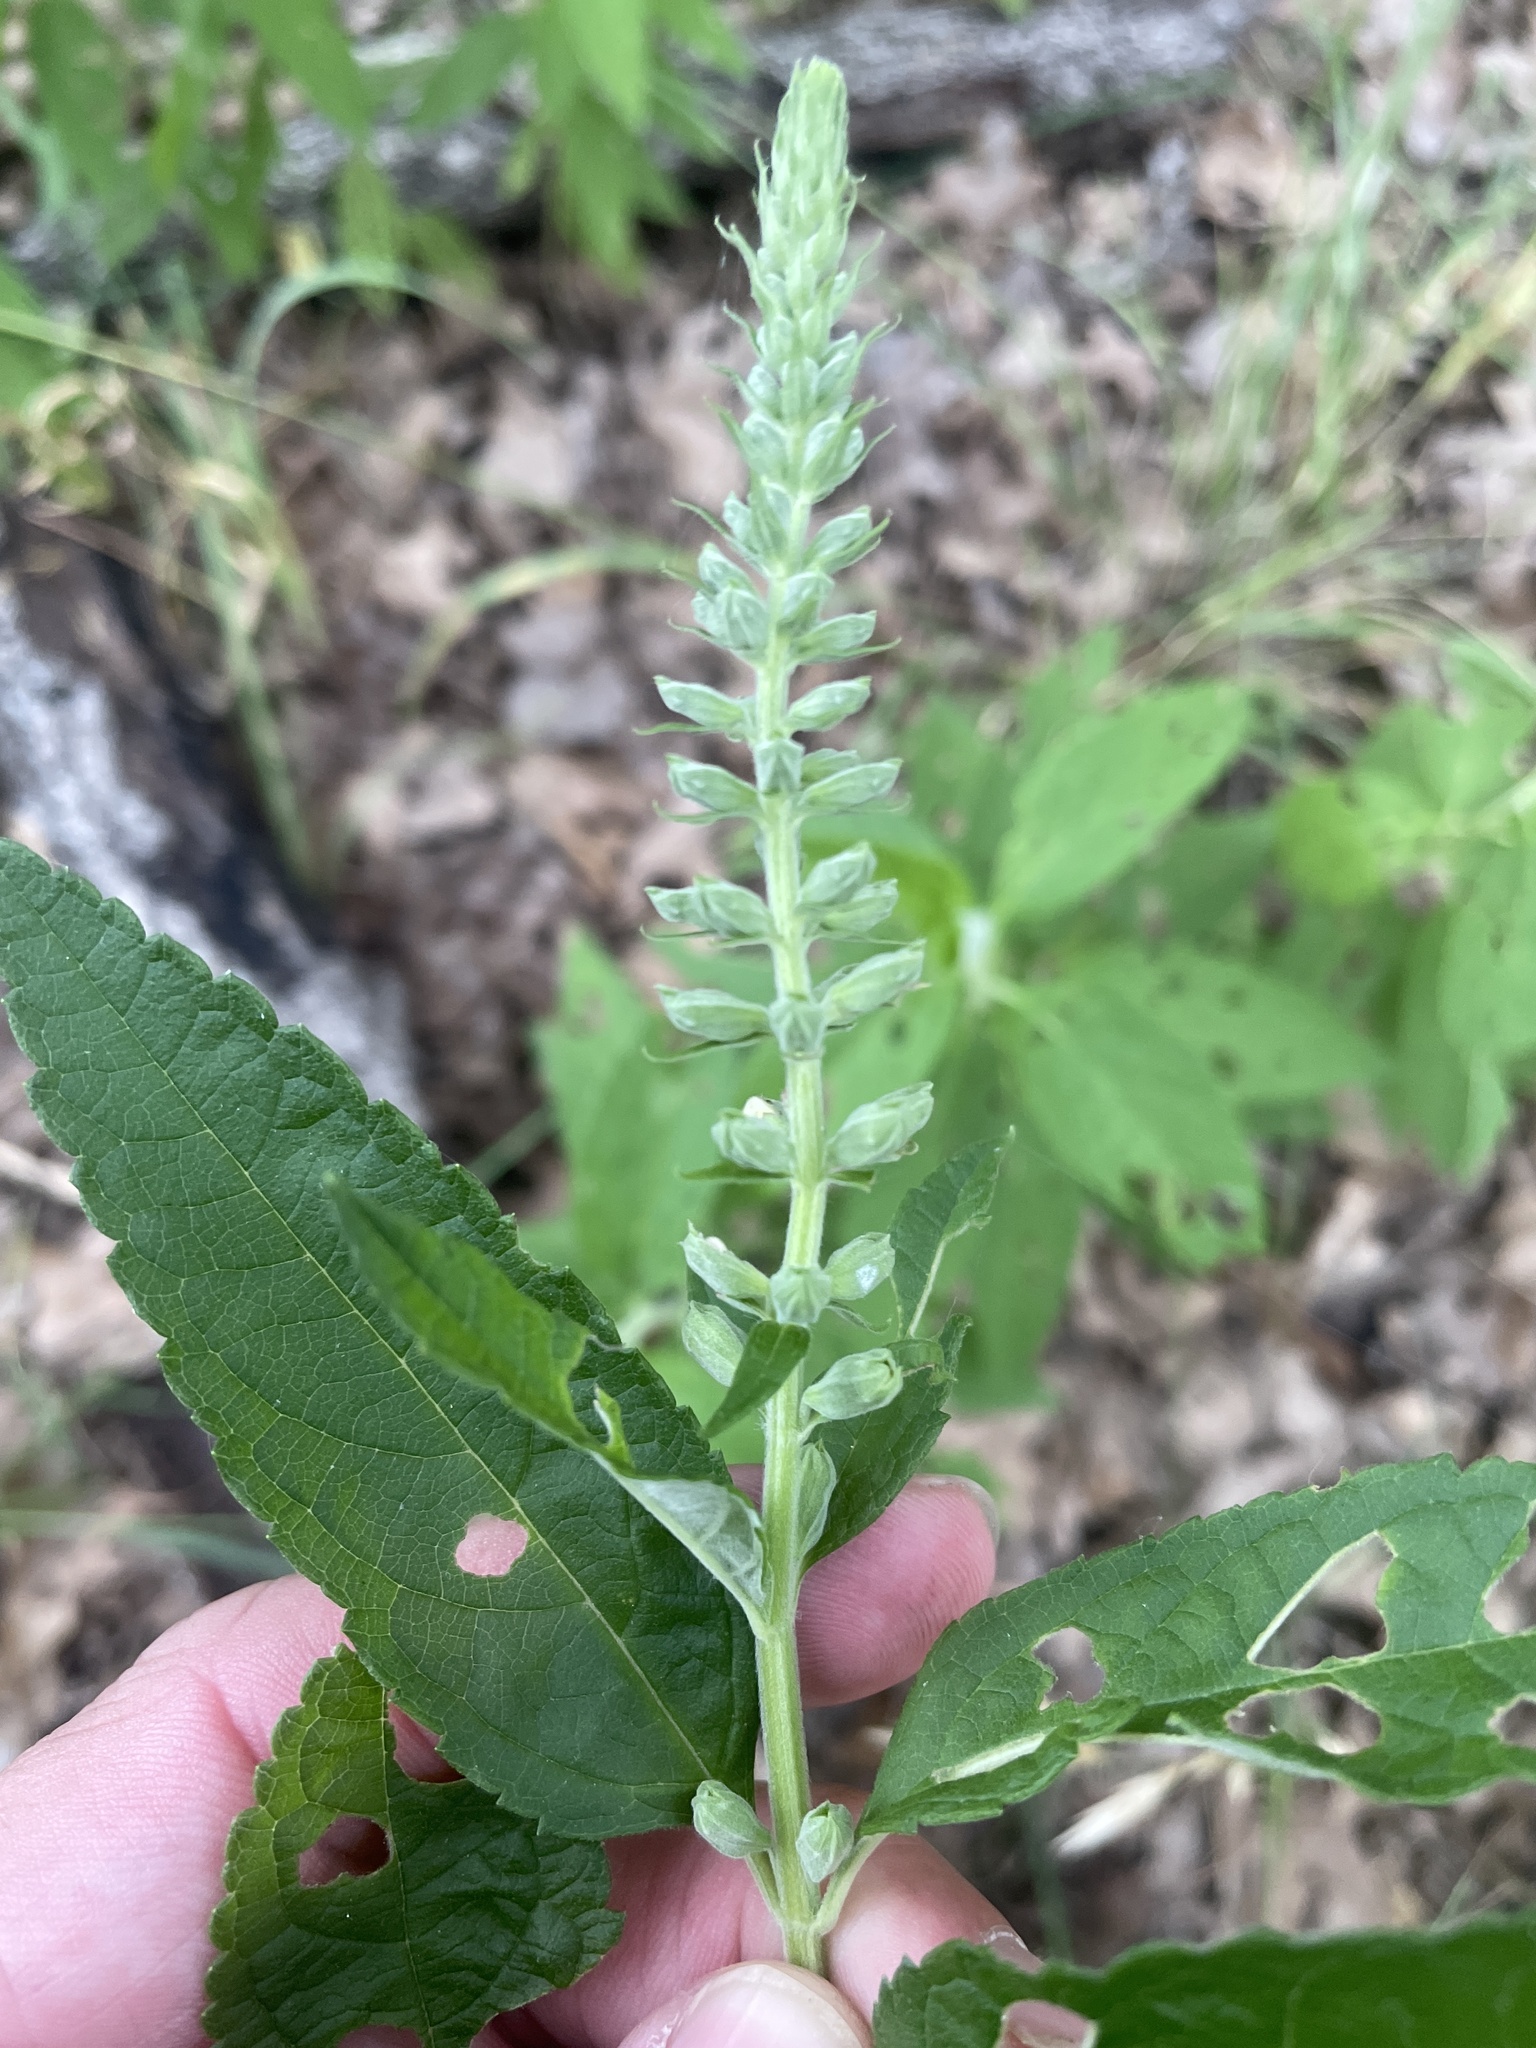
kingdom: Plantae
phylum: Tracheophyta
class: Magnoliopsida
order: Lamiales
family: Lamiaceae
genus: Teucrium
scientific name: Teucrium canadense
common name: American germander
